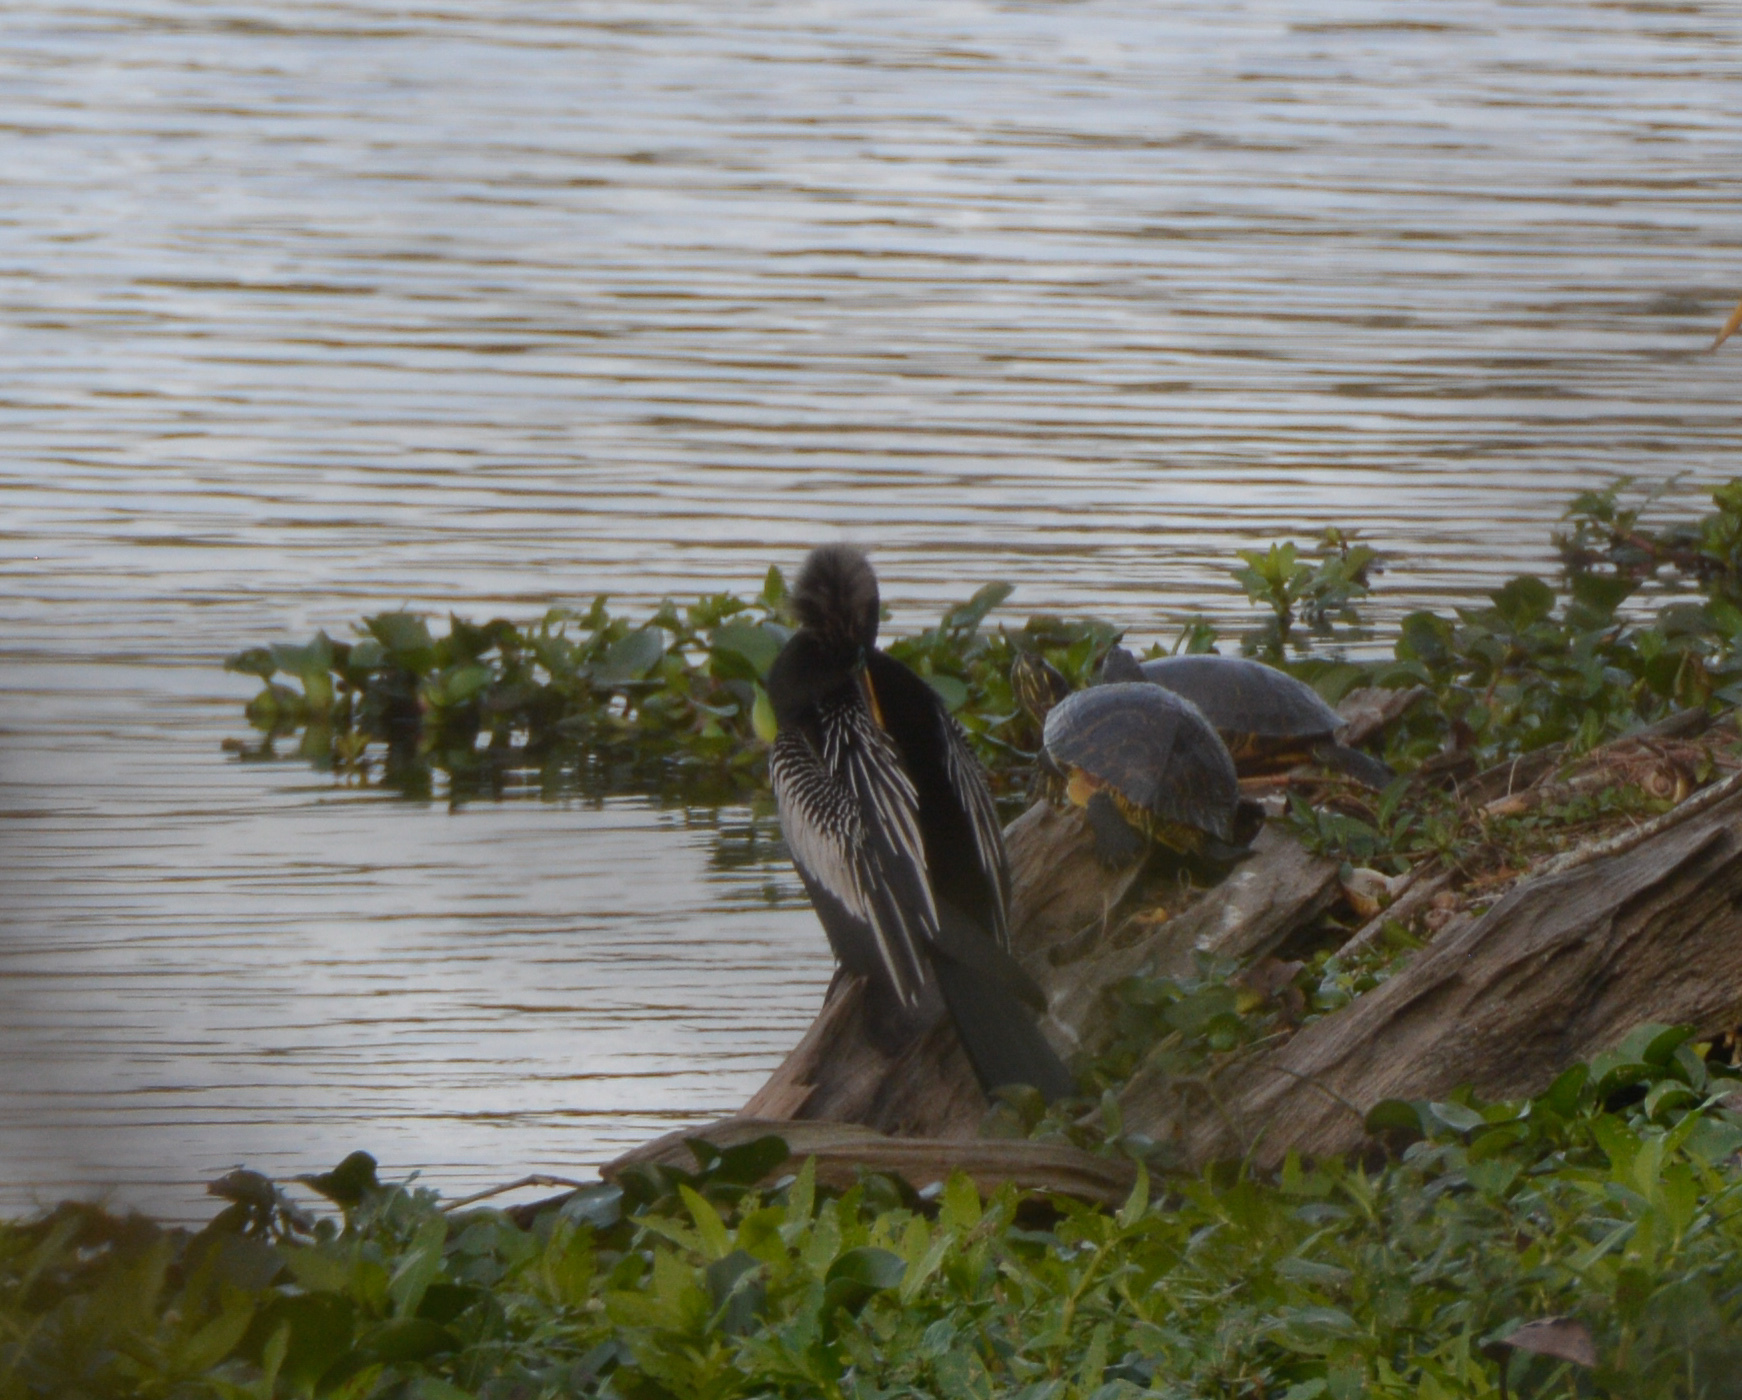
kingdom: Animalia
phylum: Chordata
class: Aves
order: Suliformes
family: Anhingidae
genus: Anhinga
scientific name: Anhinga anhinga
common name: Anhinga
